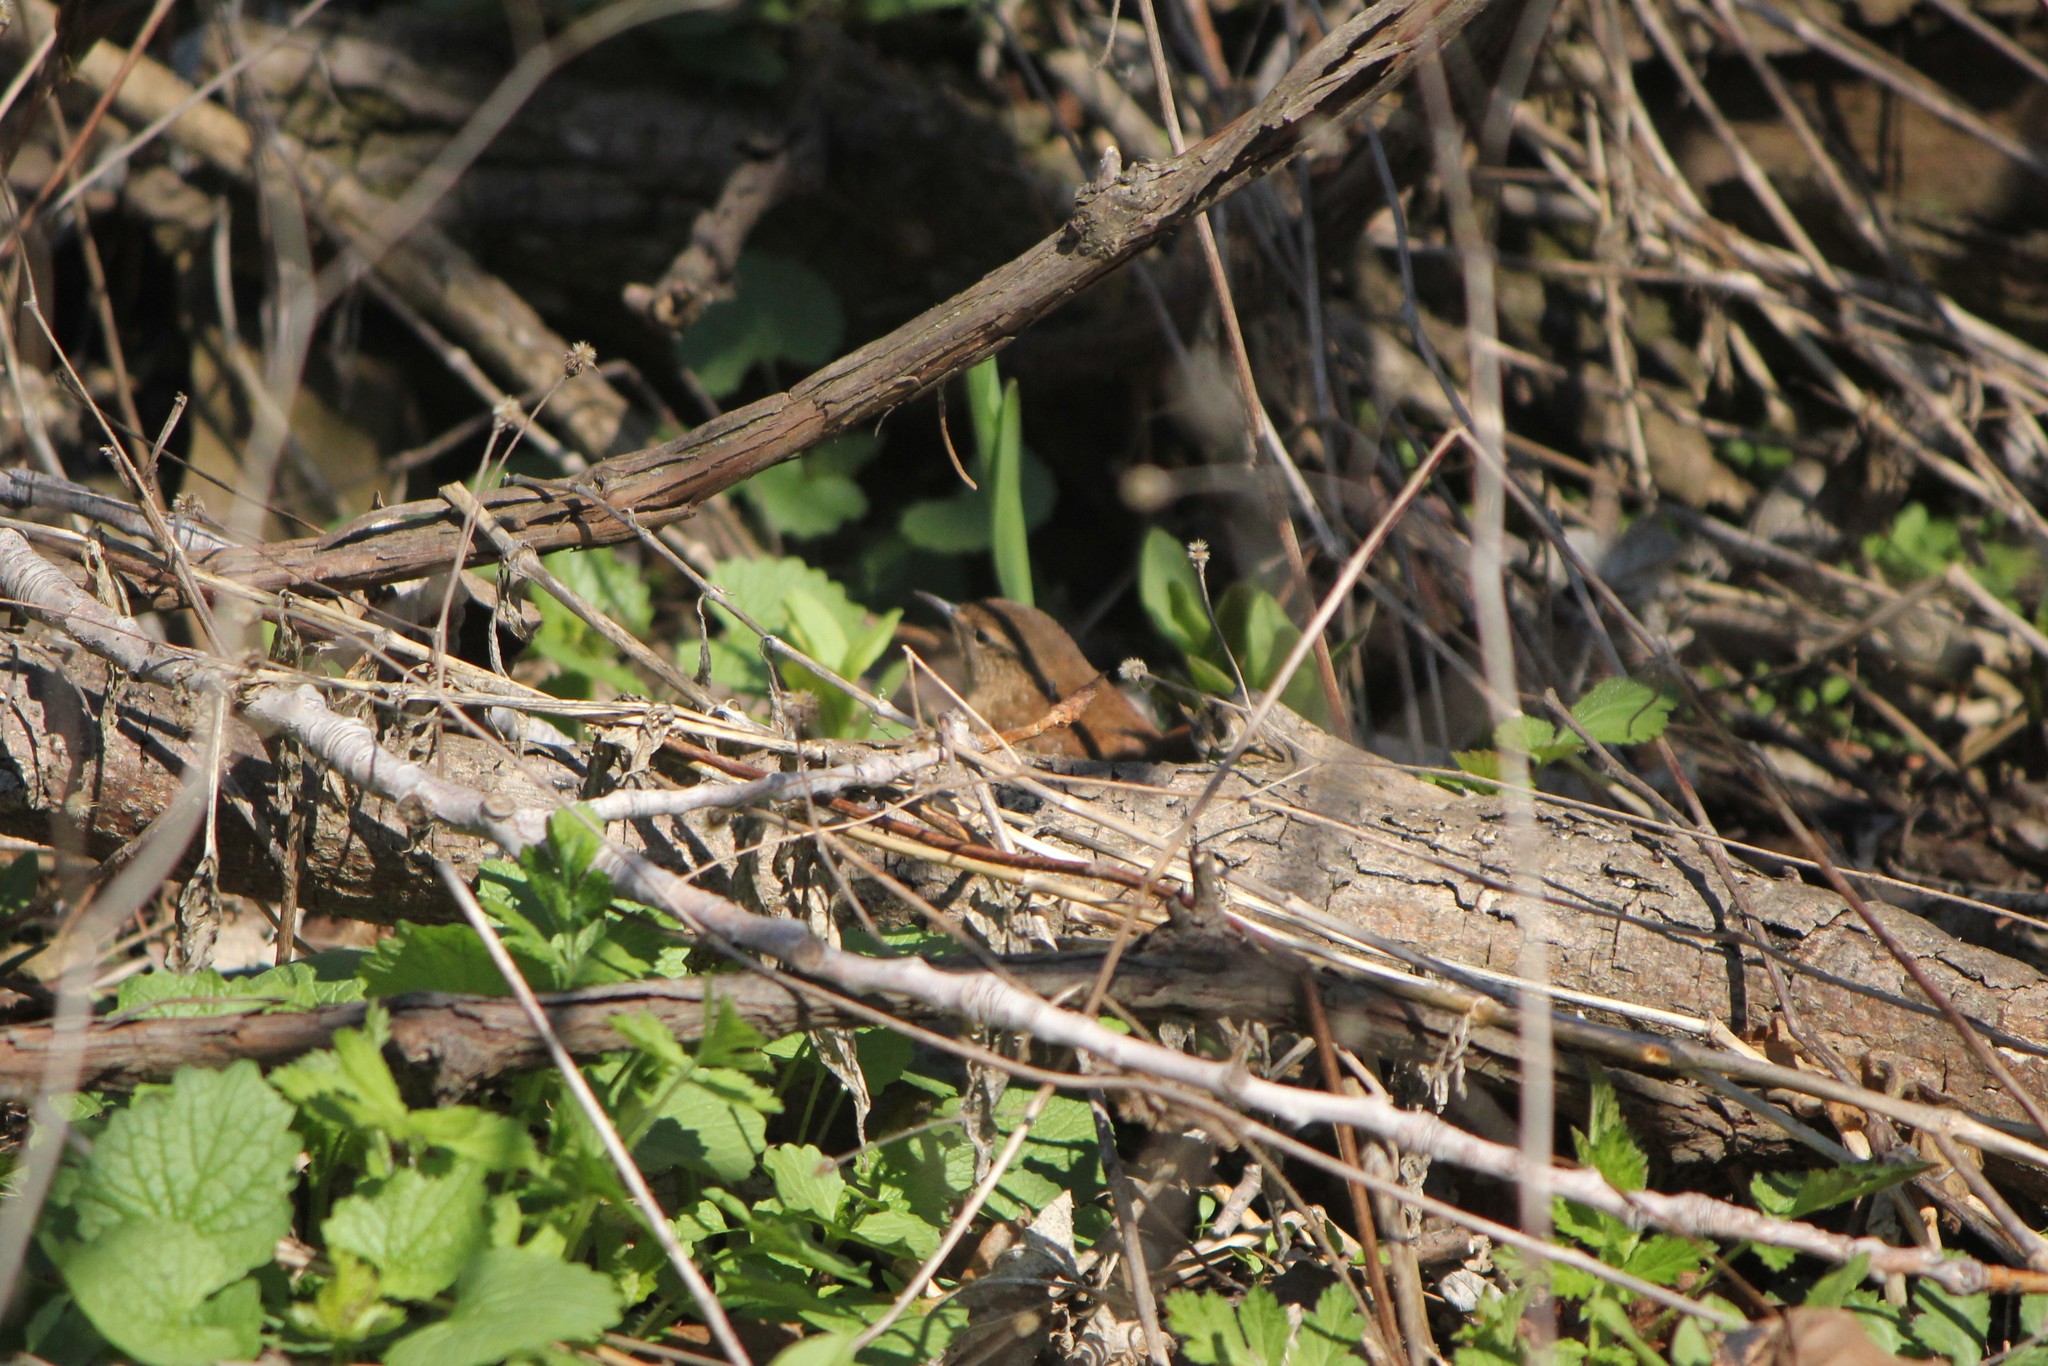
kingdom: Animalia
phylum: Chordata
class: Aves
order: Passeriformes
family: Troglodytidae
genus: Troglodytes
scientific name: Troglodytes hiemalis
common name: Winter wren
